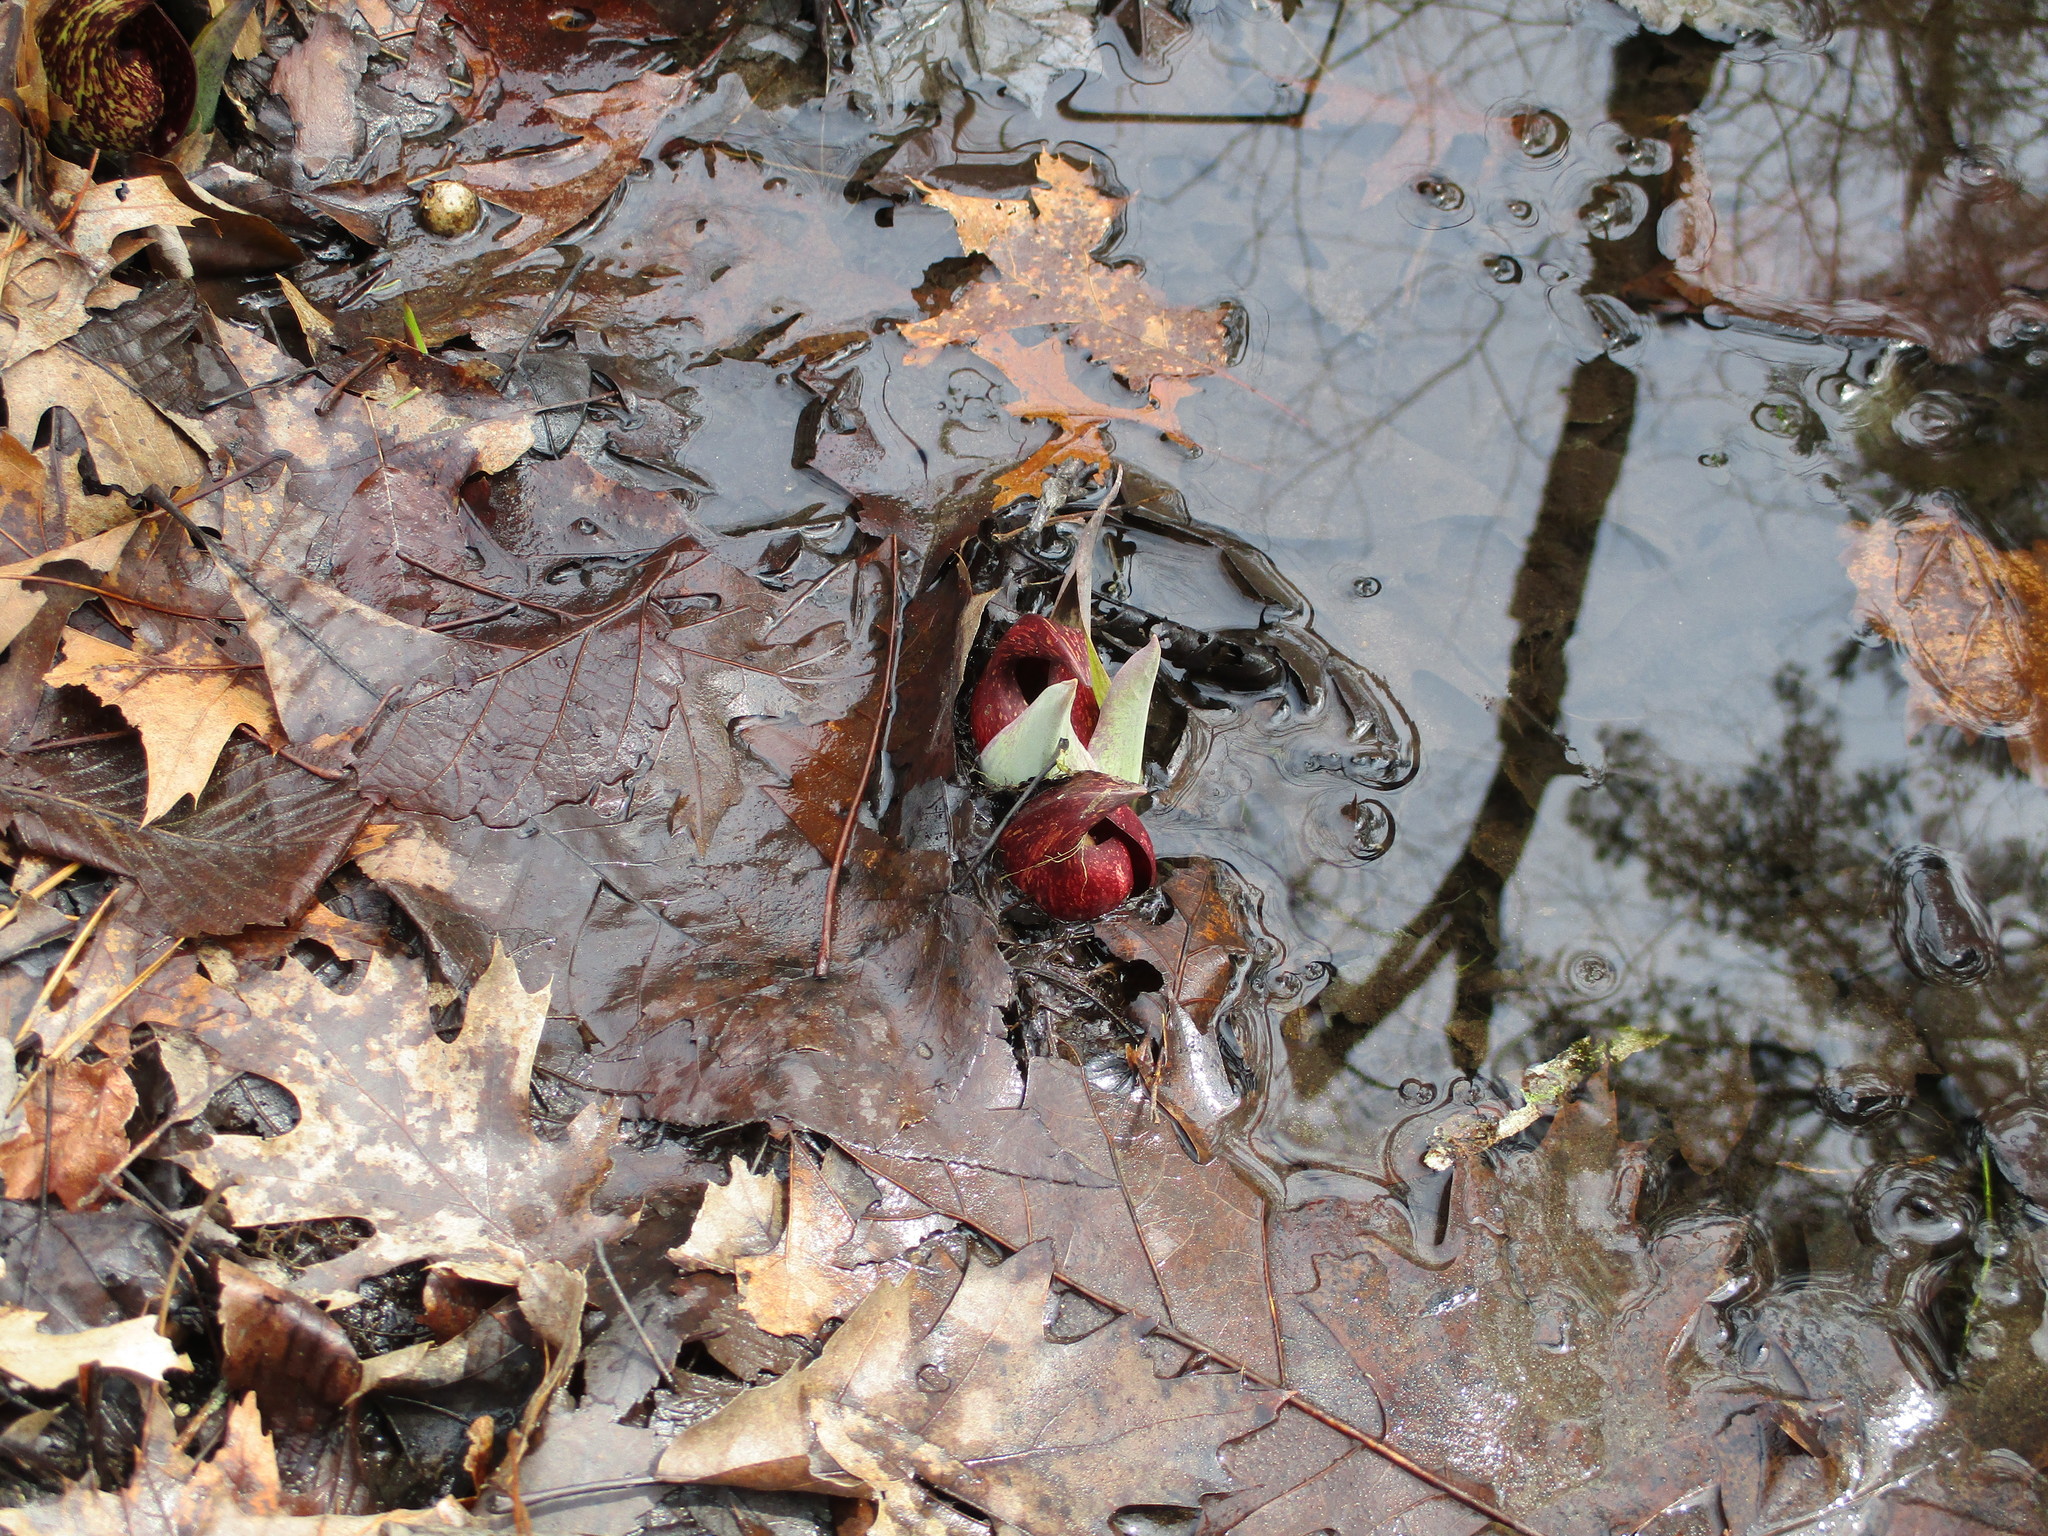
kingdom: Plantae
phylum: Tracheophyta
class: Liliopsida
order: Alismatales
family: Araceae
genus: Symplocarpus
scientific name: Symplocarpus foetidus
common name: Eastern skunk cabbage
